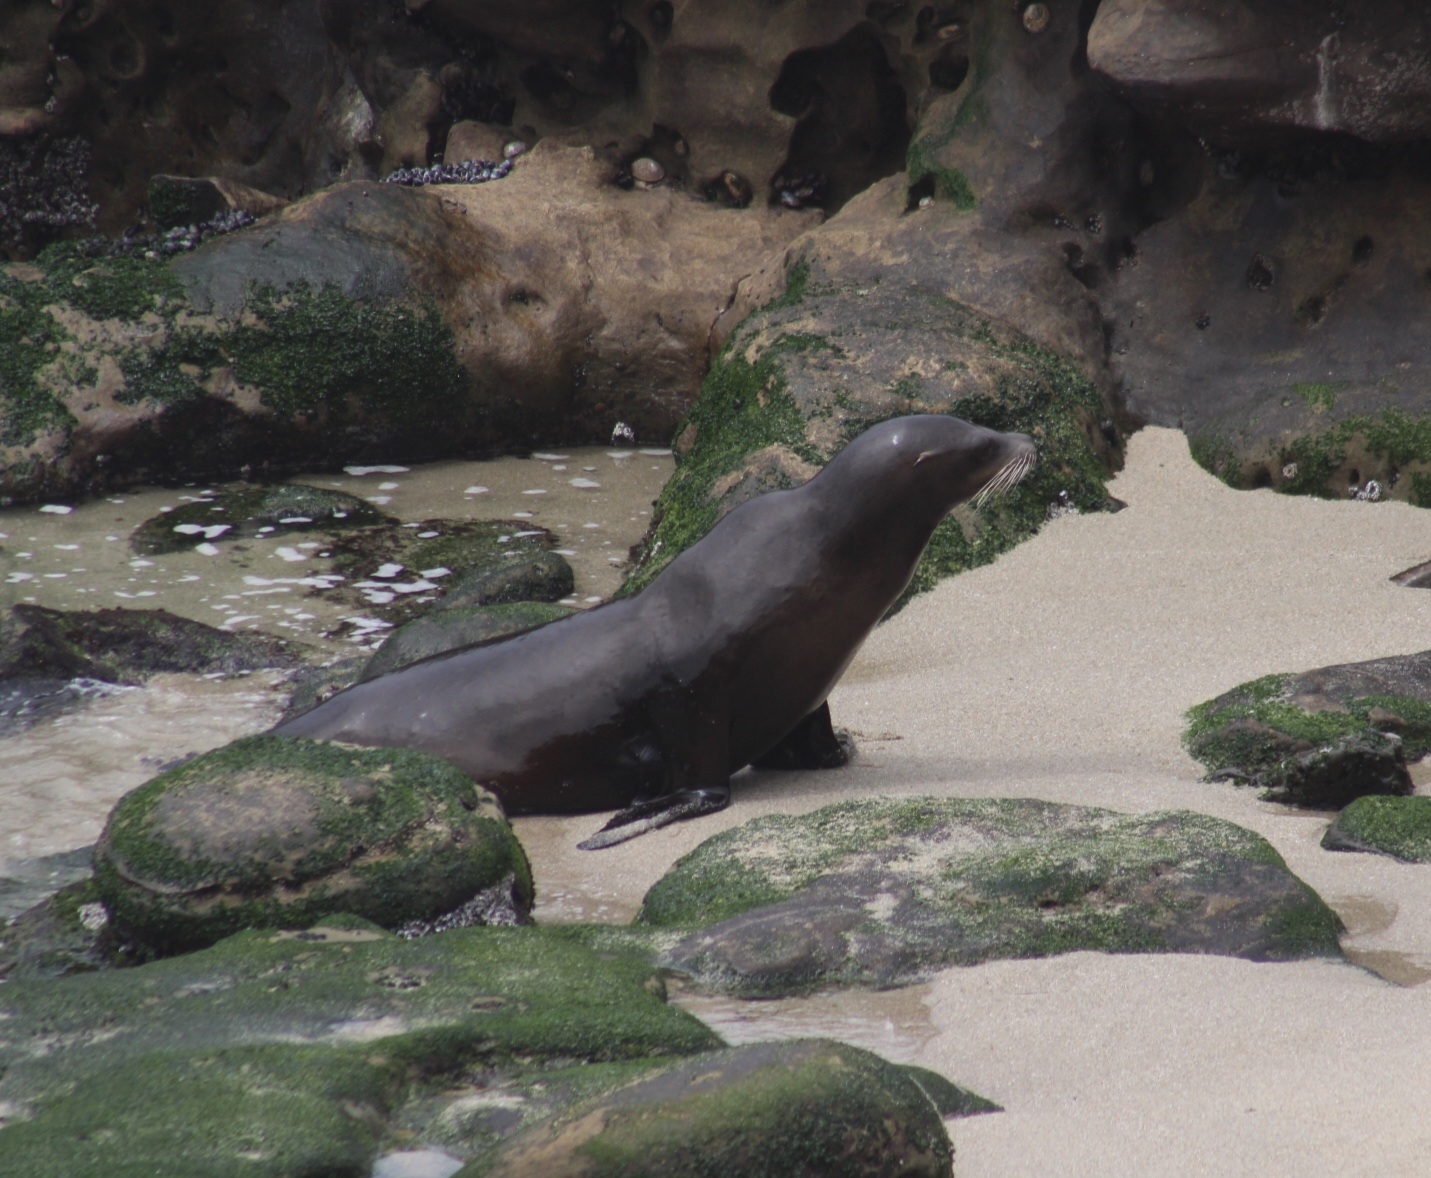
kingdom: Animalia
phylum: Chordata
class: Mammalia
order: Carnivora
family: Otariidae
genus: Zalophus
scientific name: Zalophus californianus
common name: California sea lion
